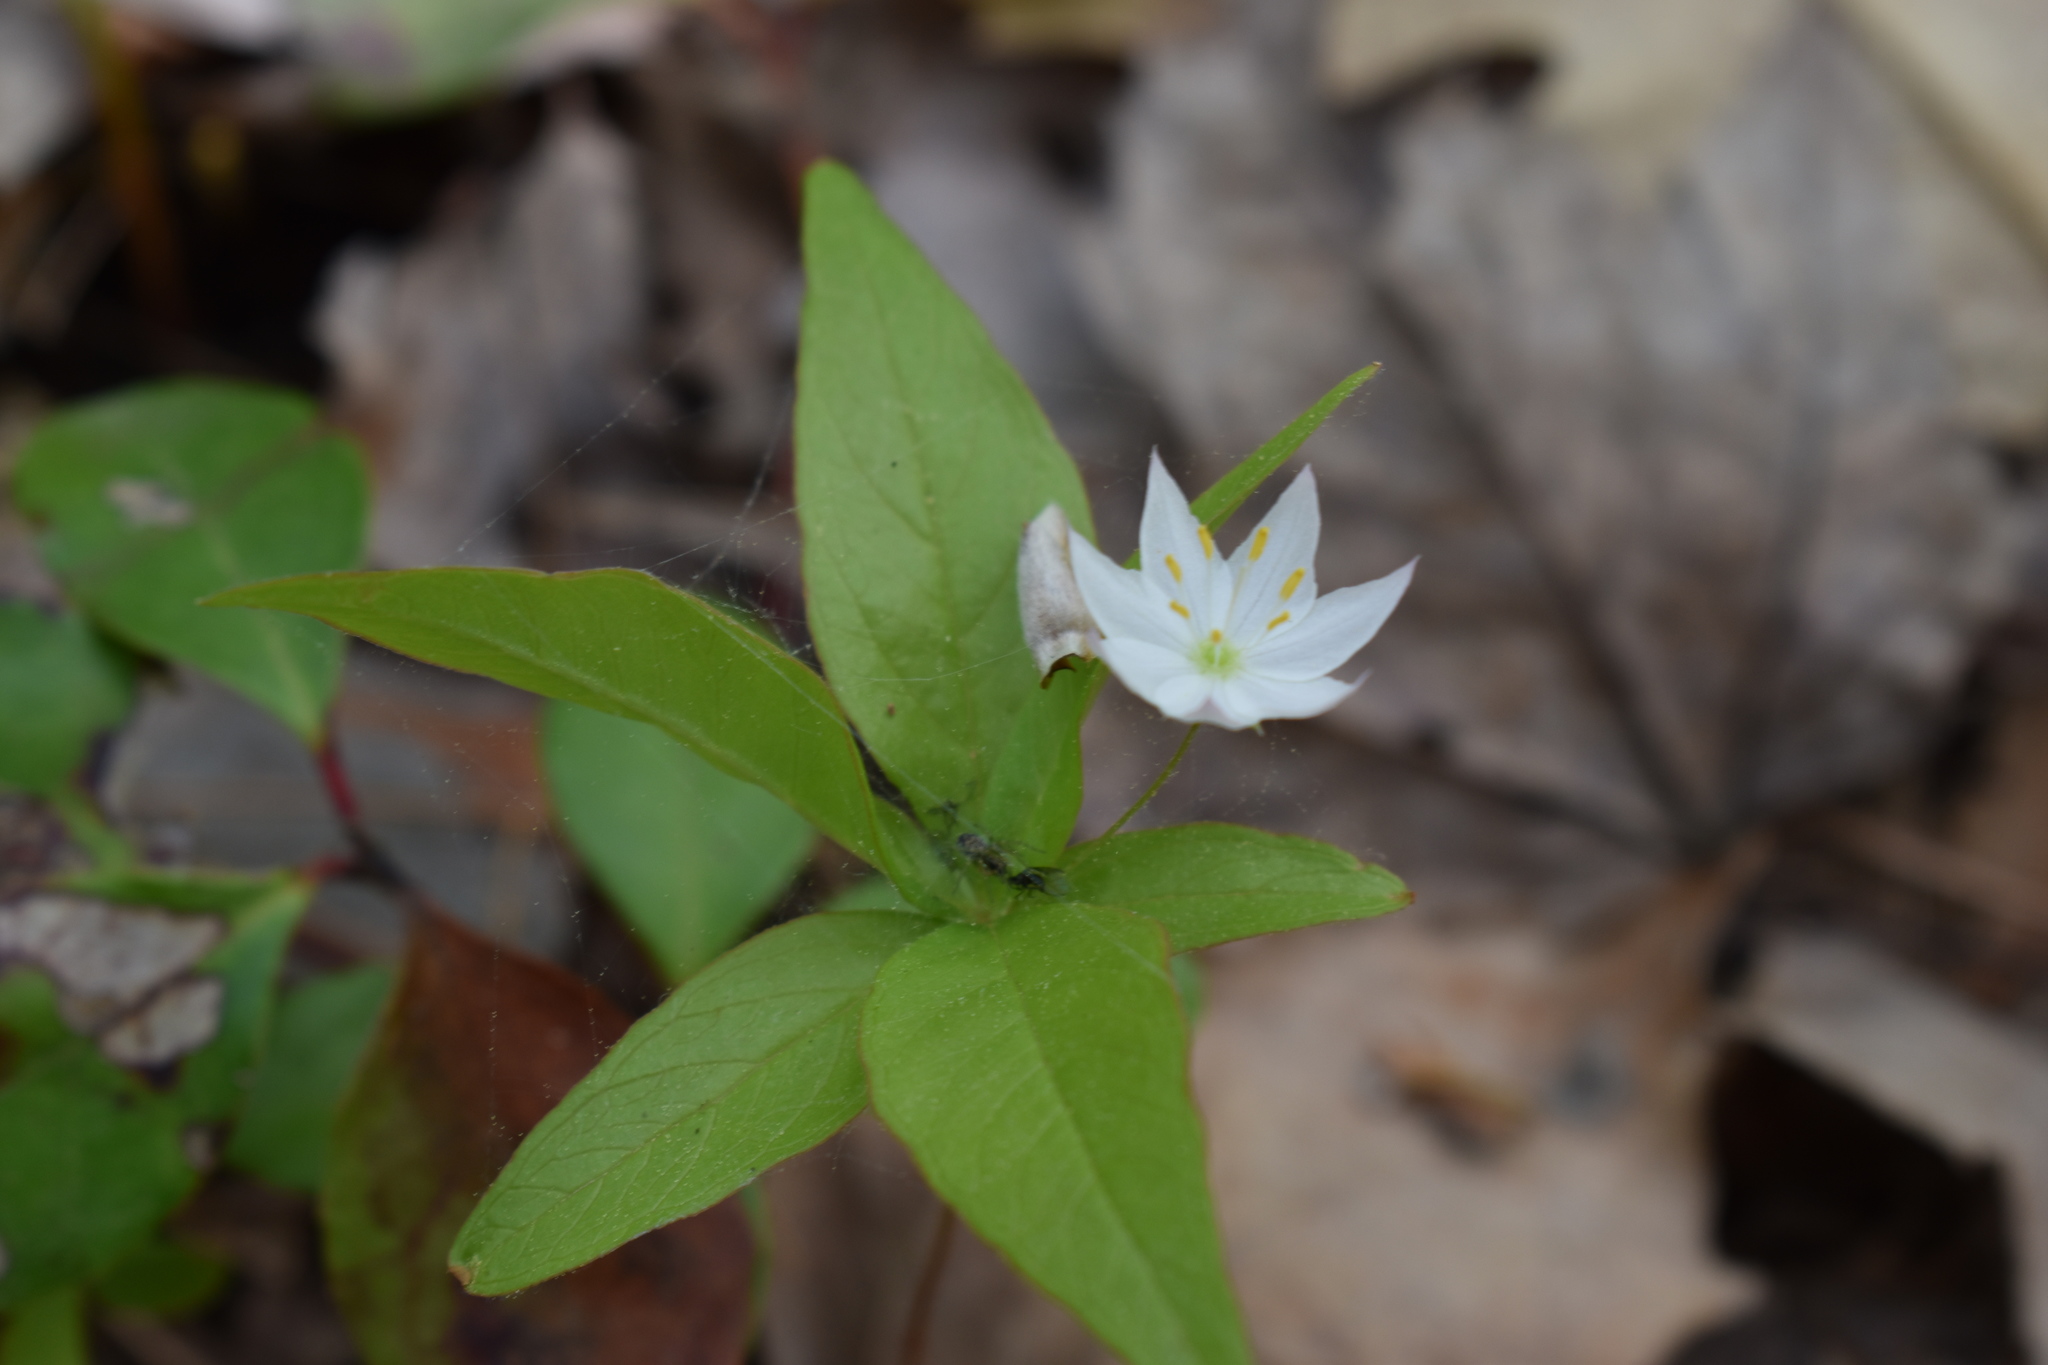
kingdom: Plantae
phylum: Tracheophyta
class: Magnoliopsida
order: Ericales
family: Primulaceae
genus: Lysimachia
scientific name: Lysimachia borealis
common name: American starflower
